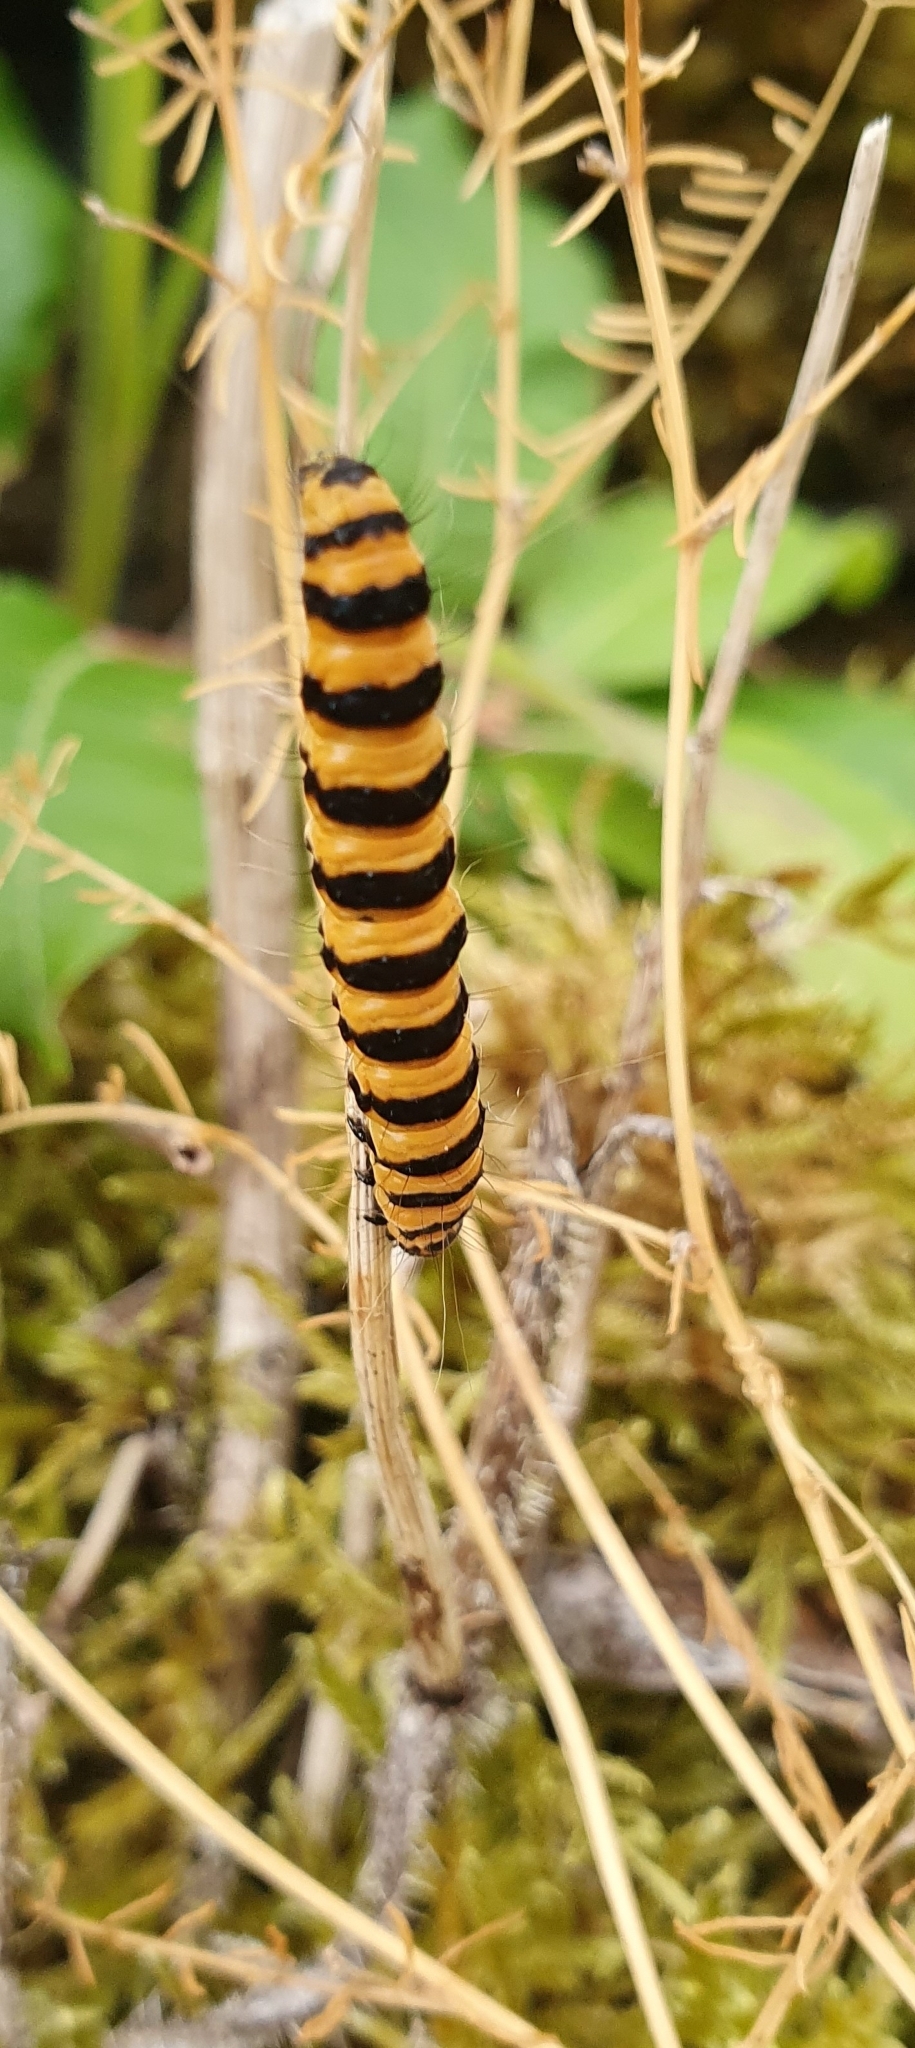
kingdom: Animalia
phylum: Arthropoda
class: Insecta
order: Lepidoptera
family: Erebidae
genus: Tyria
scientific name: Tyria jacobaeae
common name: Cinnabar
